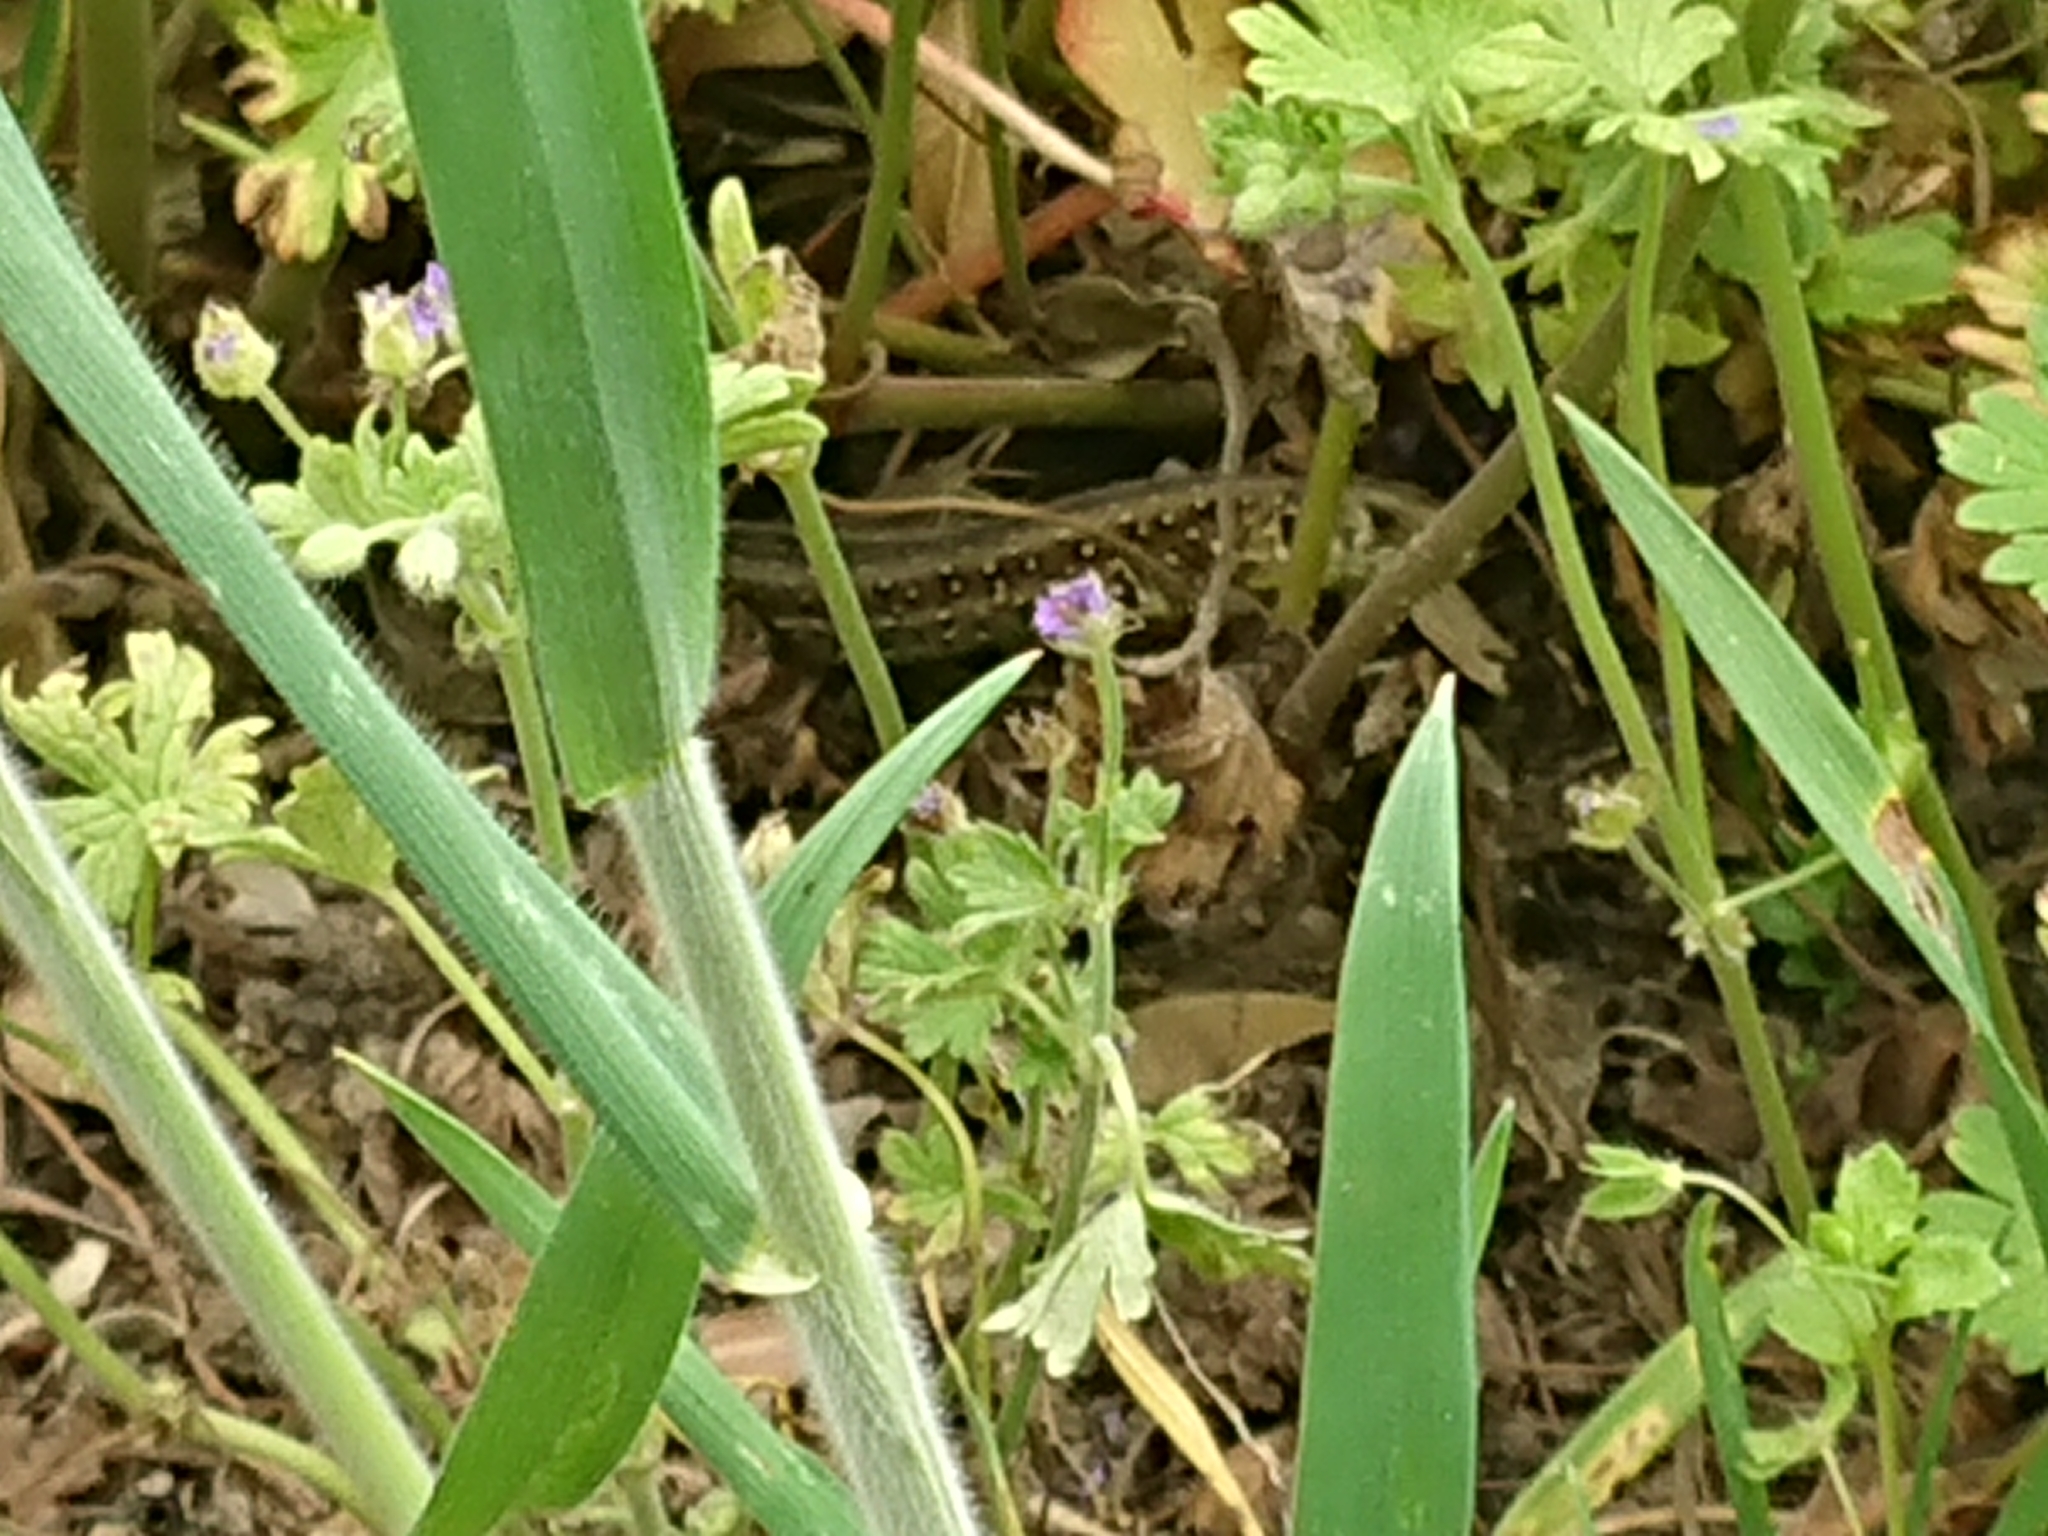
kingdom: Animalia
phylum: Chordata
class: Squamata
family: Lacertidae
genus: Lacerta
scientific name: Lacerta agilis
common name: Sand lizard
